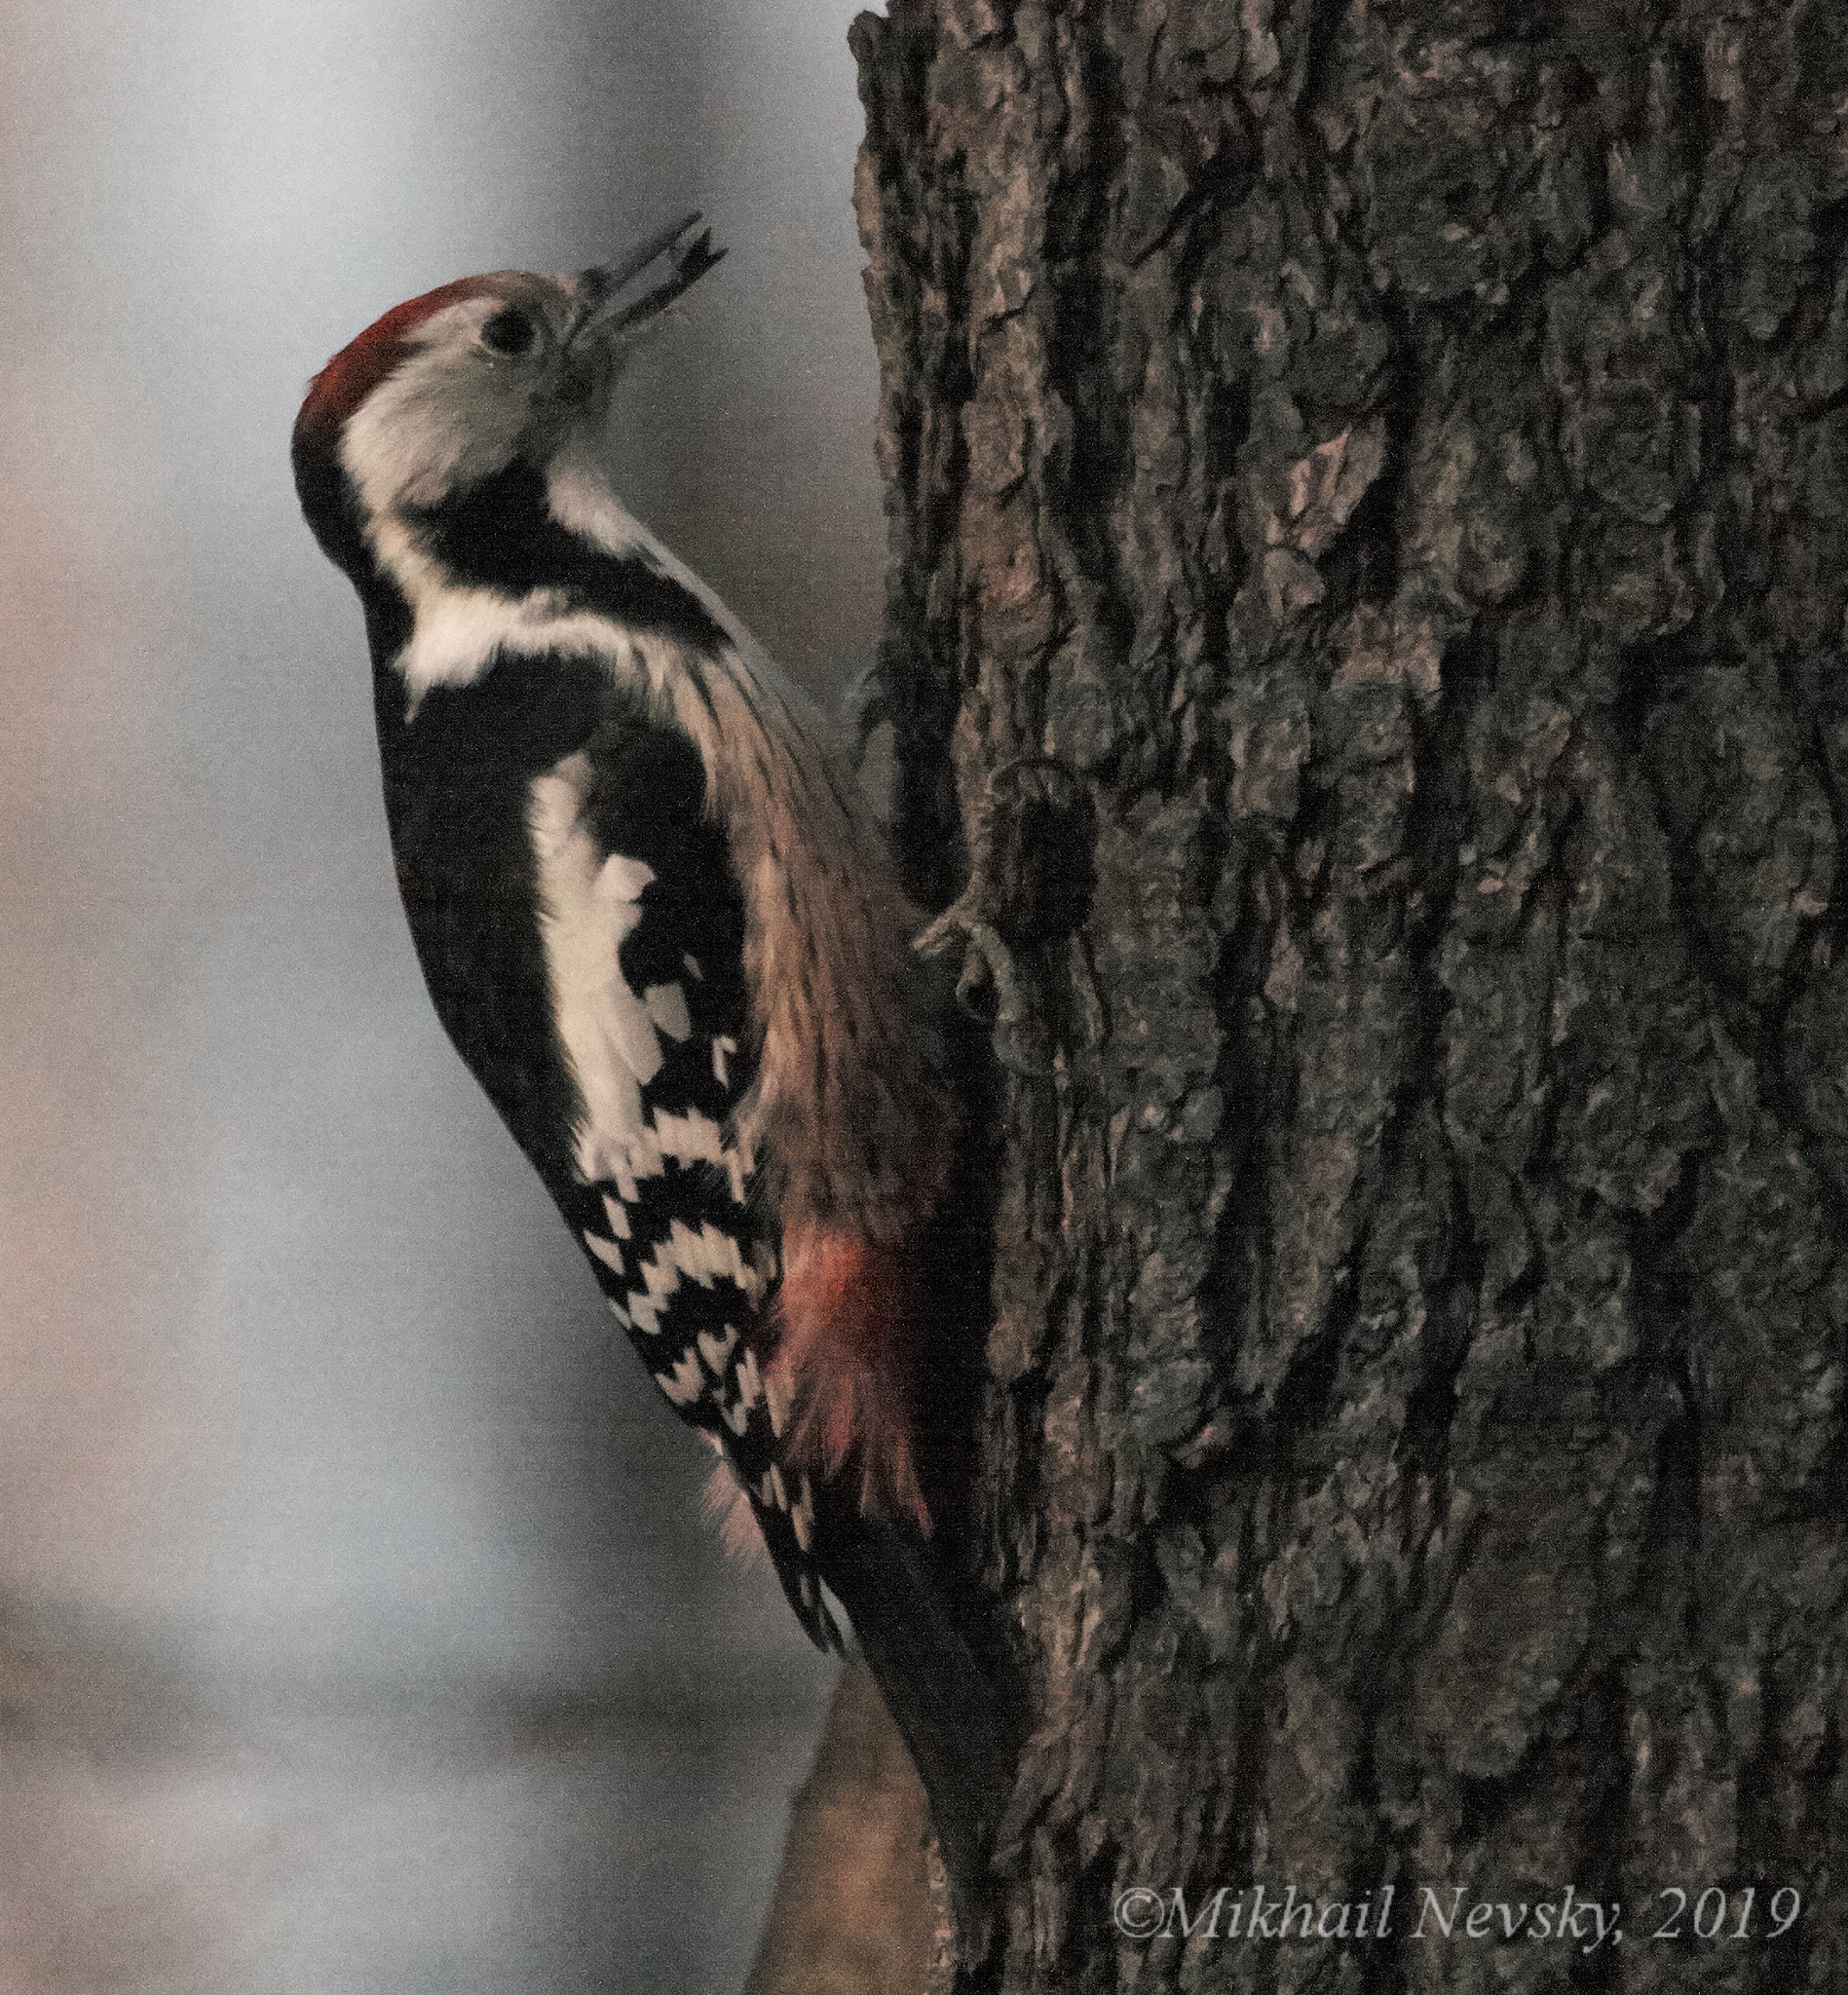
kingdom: Animalia
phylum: Chordata
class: Aves
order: Piciformes
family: Picidae
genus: Dendrocoptes
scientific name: Dendrocoptes medius
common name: Middle spotted woodpecker
